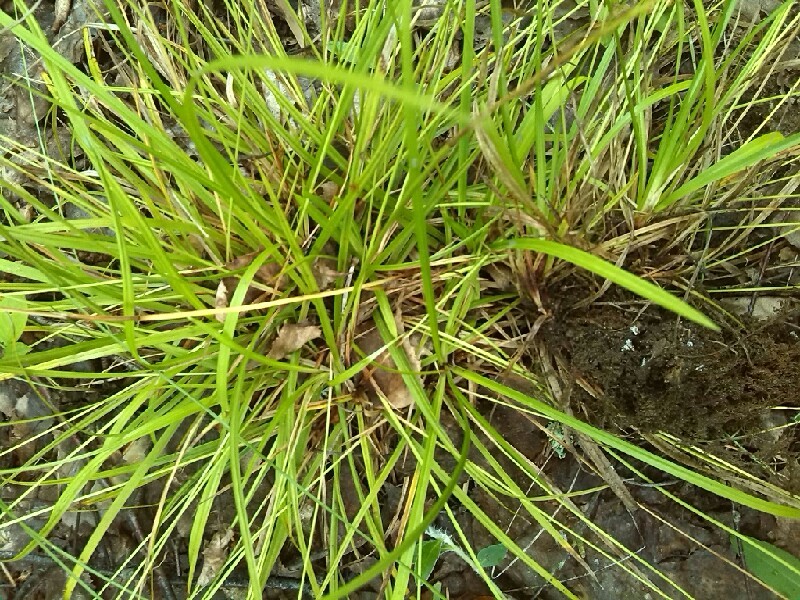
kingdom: Plantae
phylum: Tracheophyta
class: Liliopsida
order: Poales
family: Cyperaceae
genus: Carex
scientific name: Carex digitata
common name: Fingered sedge
